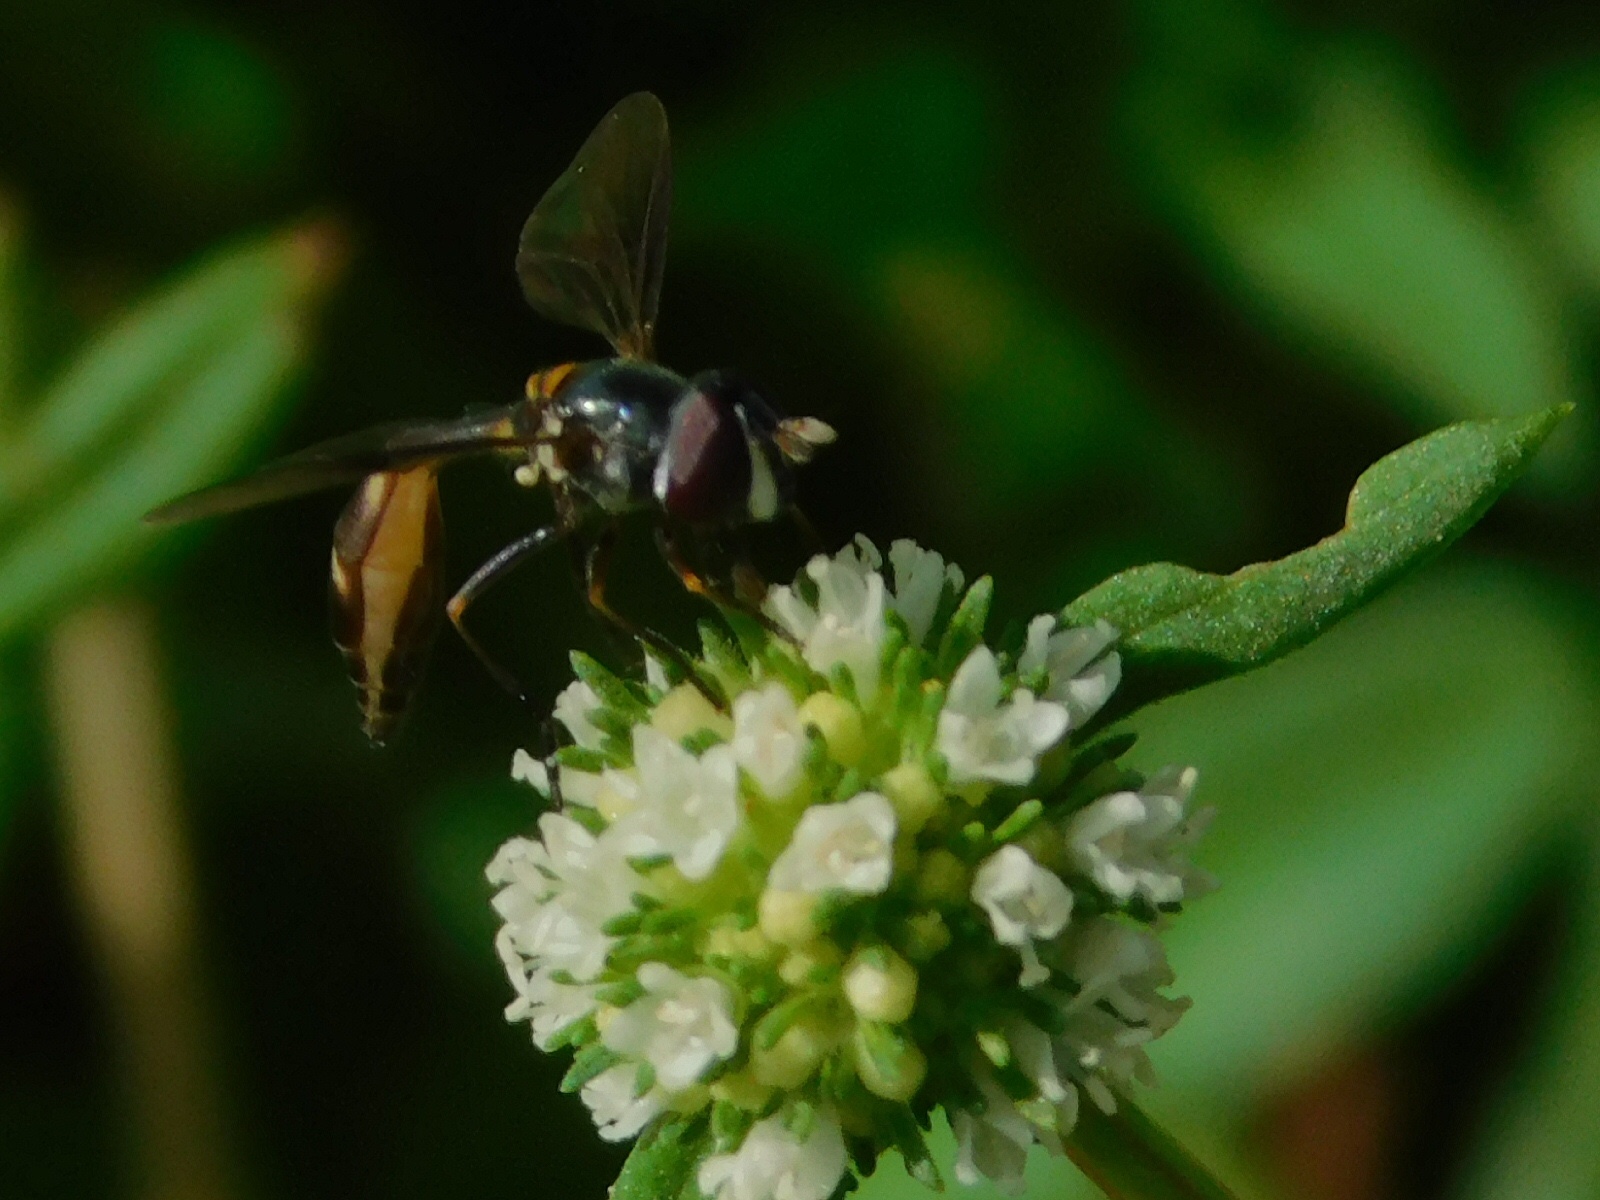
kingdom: Animalia
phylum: Arthropoda
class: Insecta
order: Diptera
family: Syrphidae
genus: Dioprosopa
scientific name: Dioprosopa clavatus
